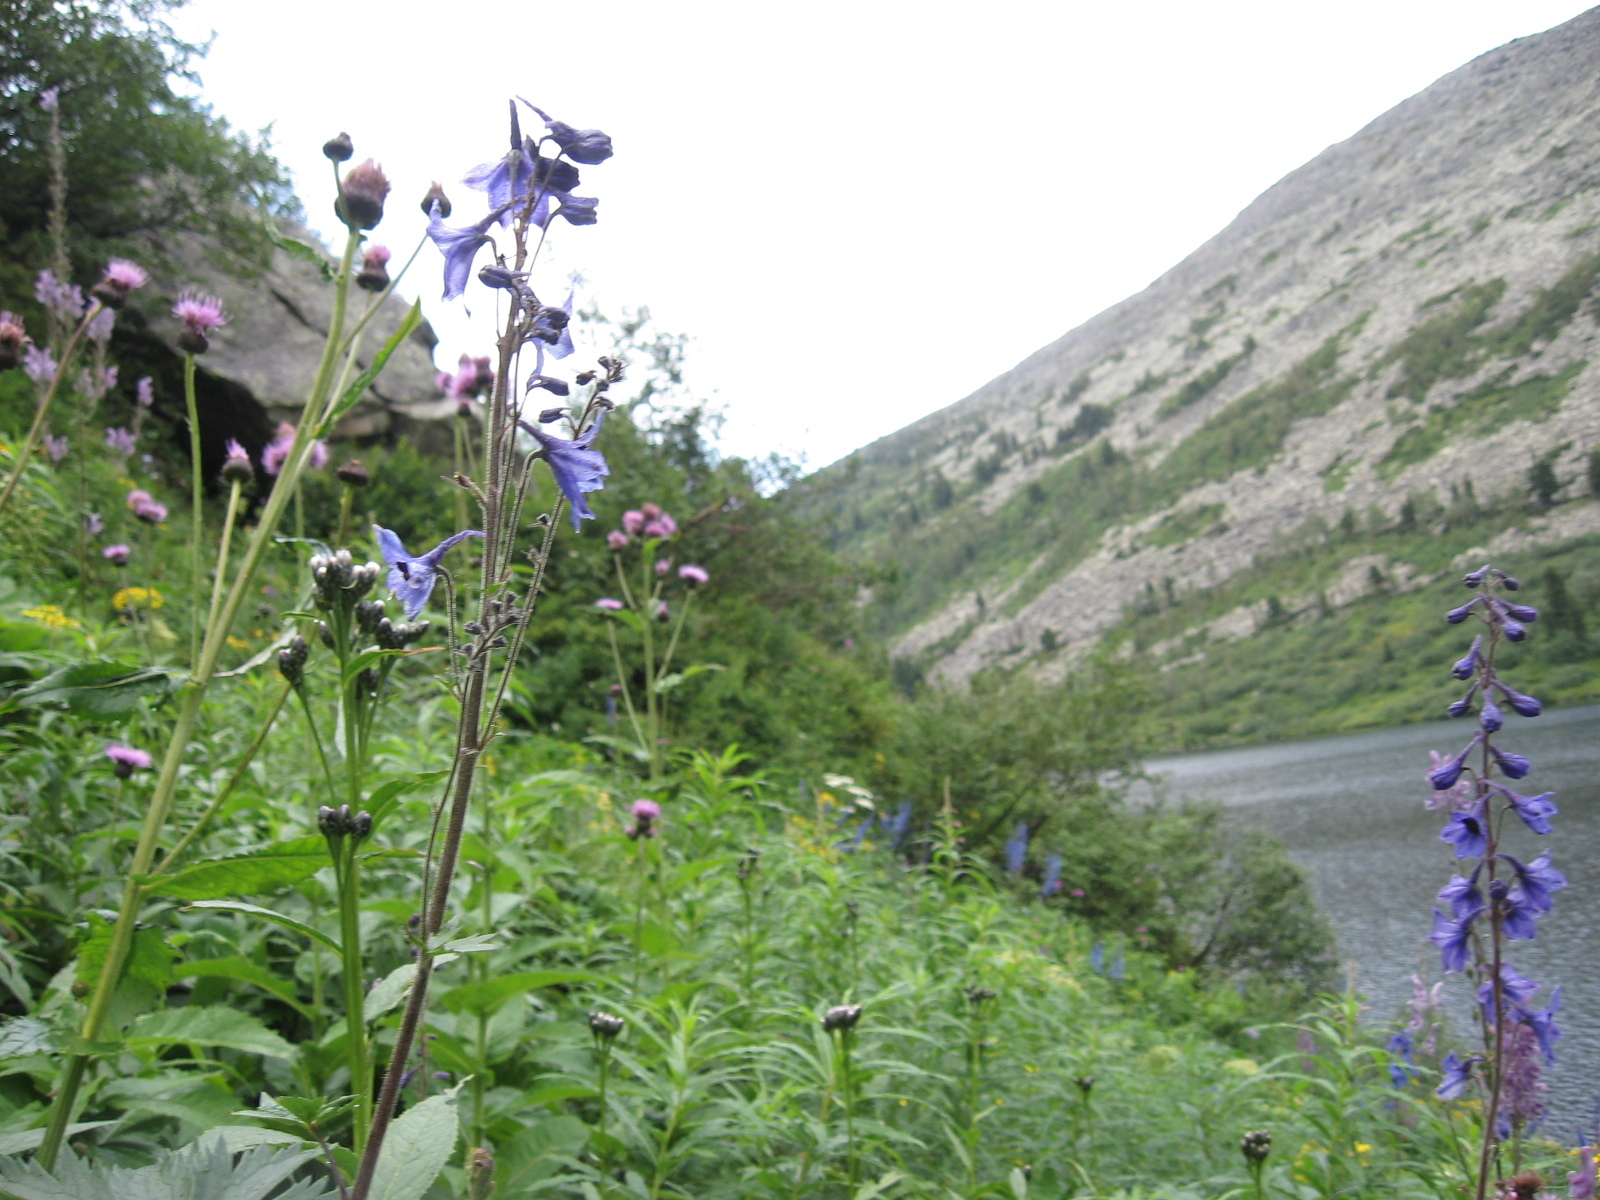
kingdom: Plantae
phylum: Tracheophyta
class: Magnoliopsida
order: Ranunculales
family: Ranunculaceae
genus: Delphinium
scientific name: Delphinium elatum
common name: Candle larkspur
